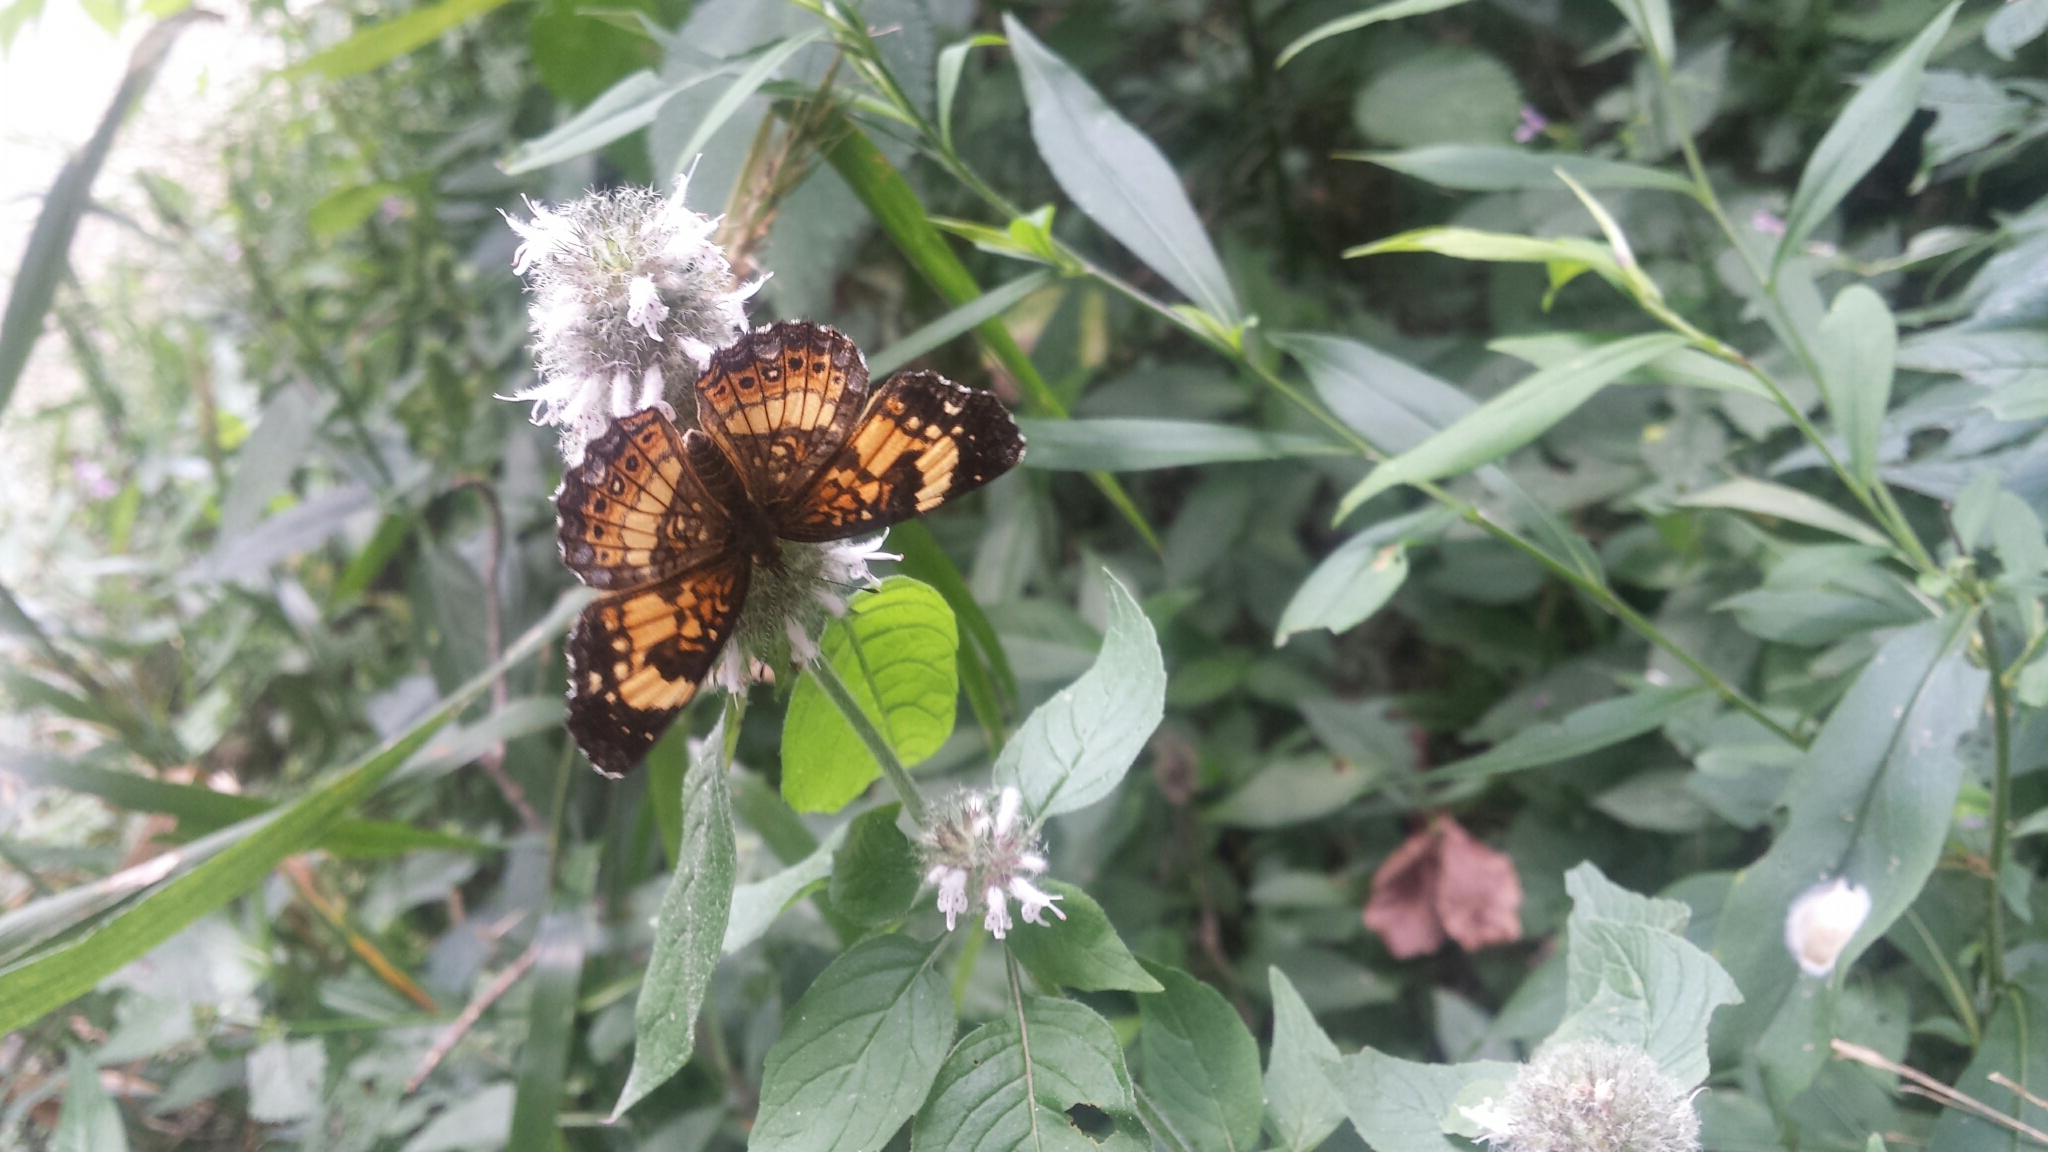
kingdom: Animalia
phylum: Arthropoda
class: Insecta
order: Lepidoptera
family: Nymphalidae
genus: Chlosyne
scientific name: Chlosyne nycteis
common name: Silvery checkerspot
